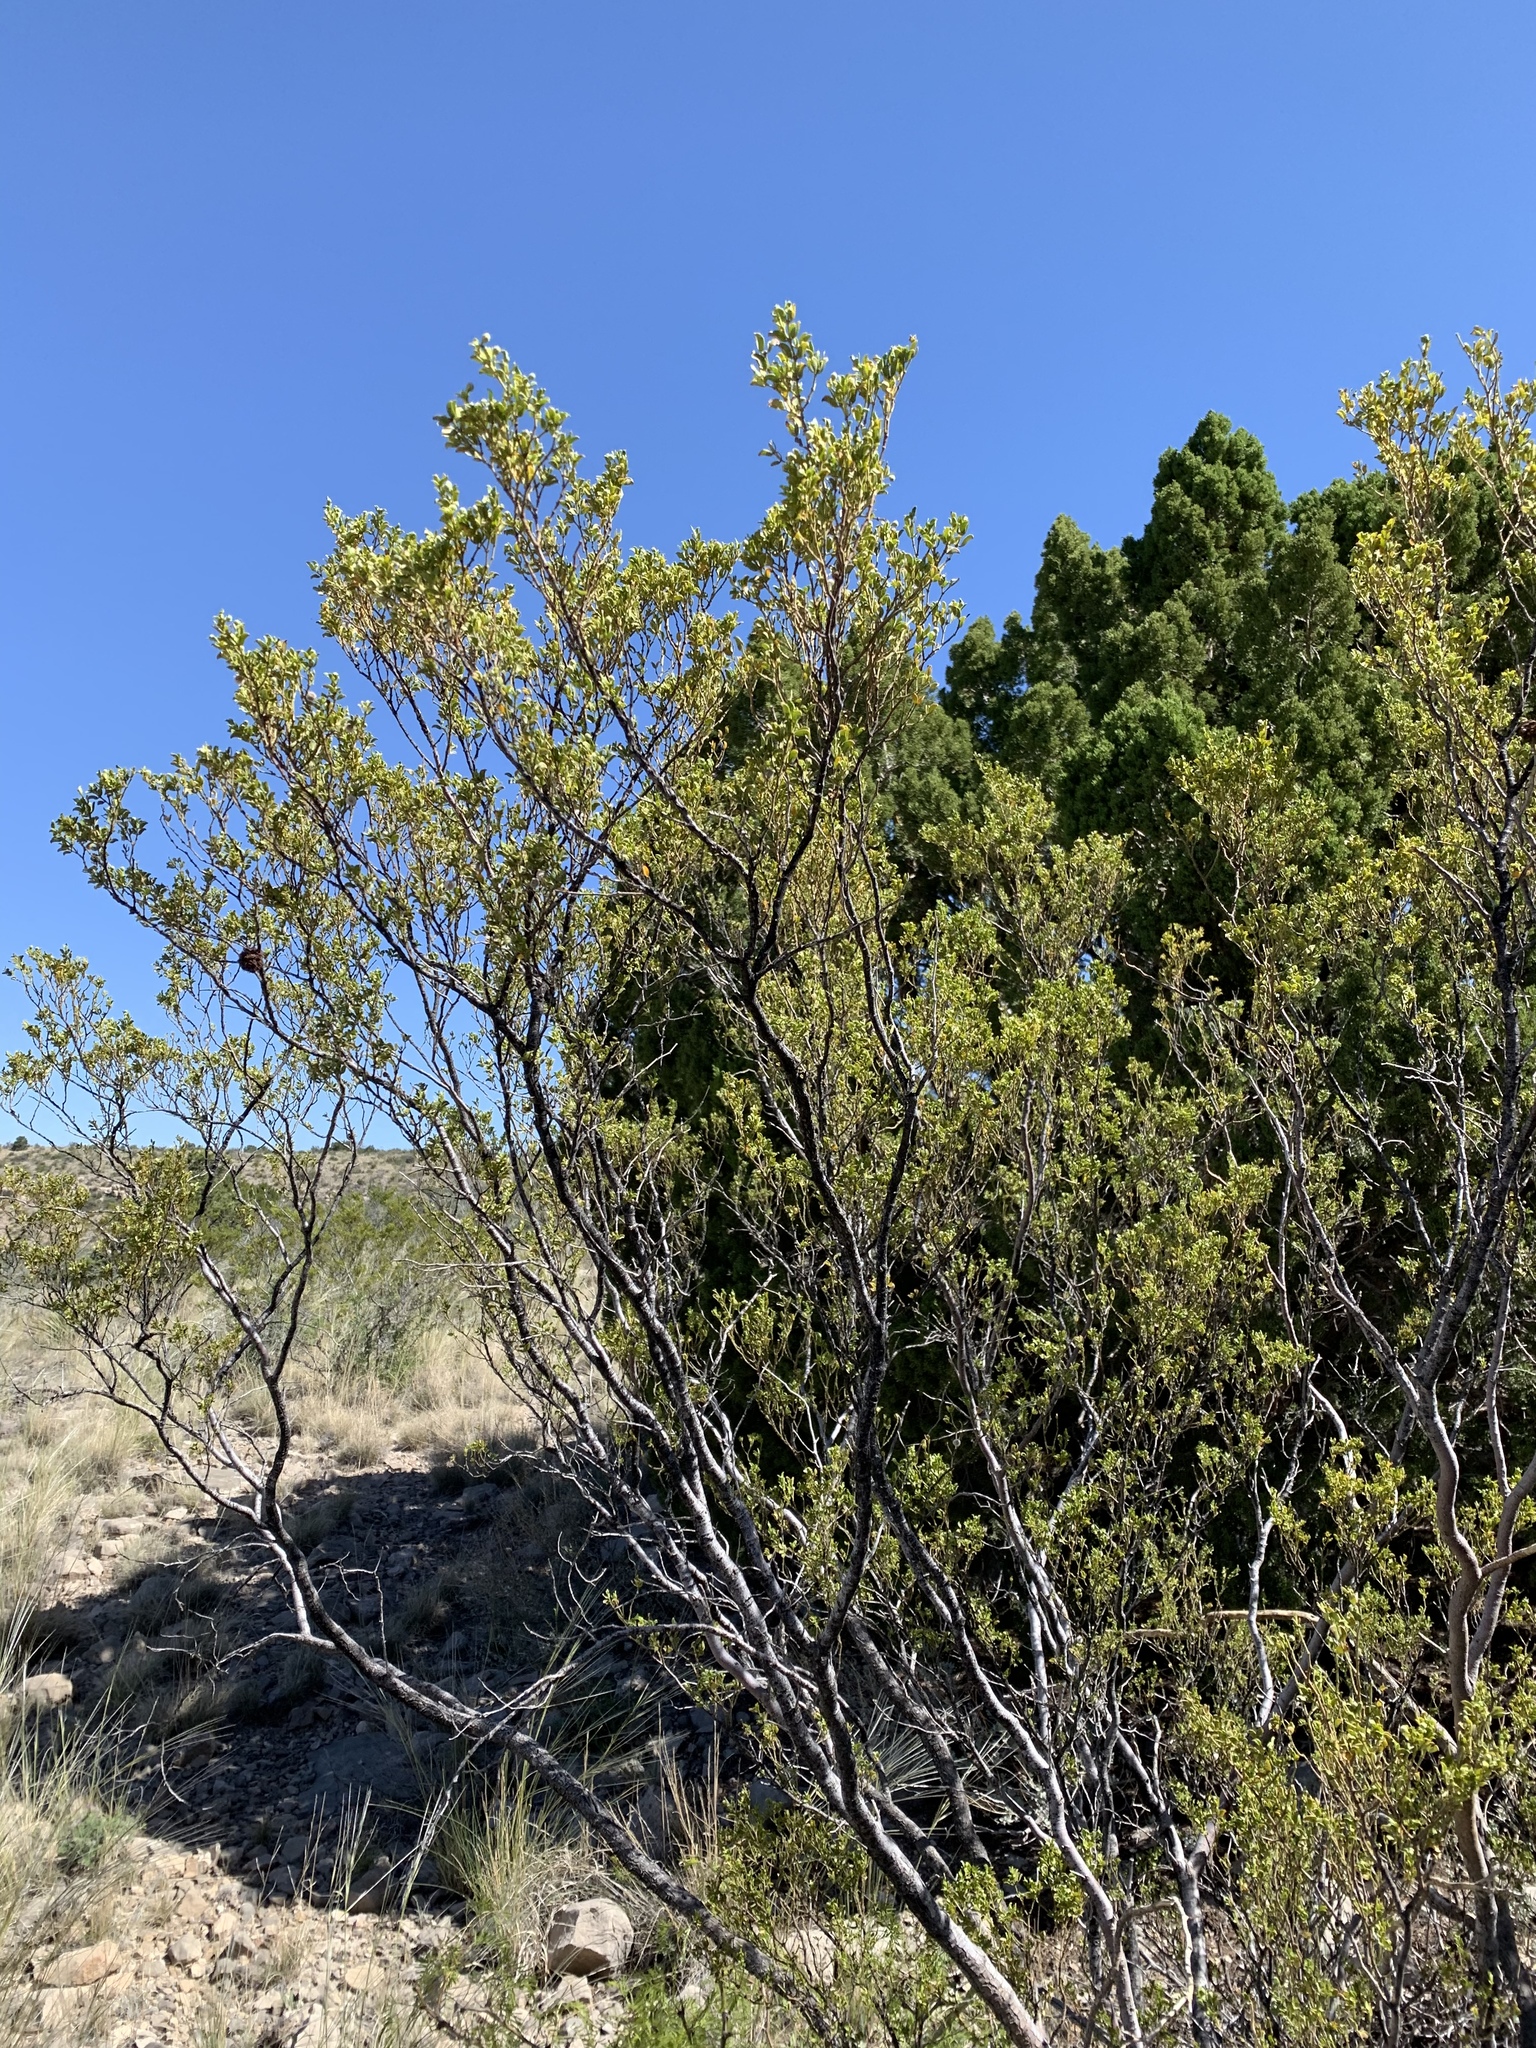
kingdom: Plantae
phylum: Tracheophyta
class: Magnoliopsida
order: Zygophyllales
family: Zygophyllaceae
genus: Larrea
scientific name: Larrea tridentata
